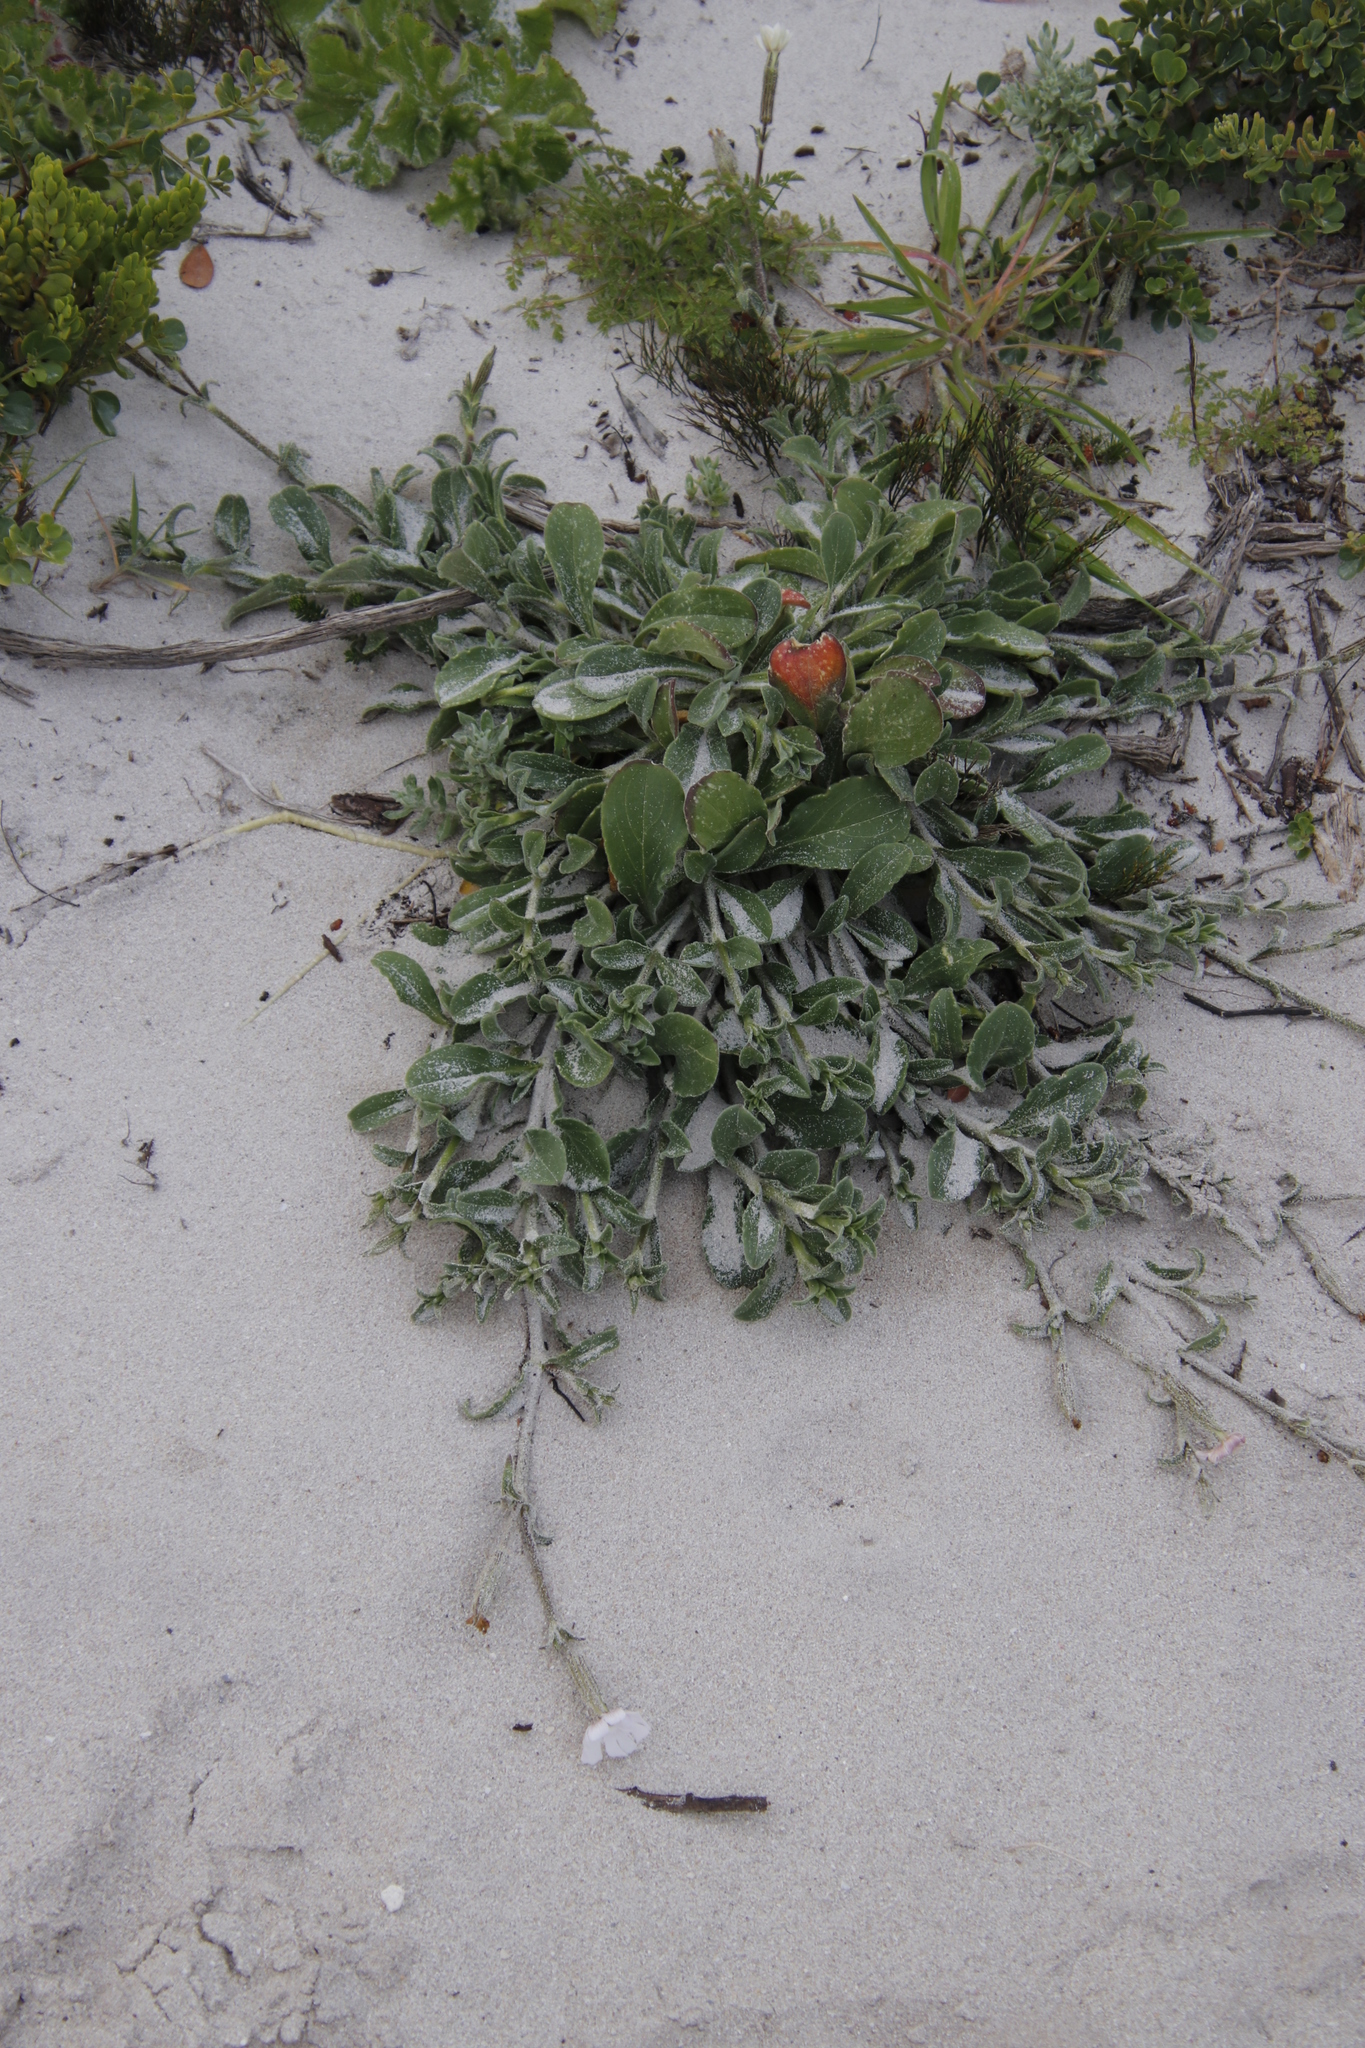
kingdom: Plantae
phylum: Tracheophyta
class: Magnoliopsida
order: Caryophyllales
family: Caryophyllaceae
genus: Silene
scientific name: Silene undulata
